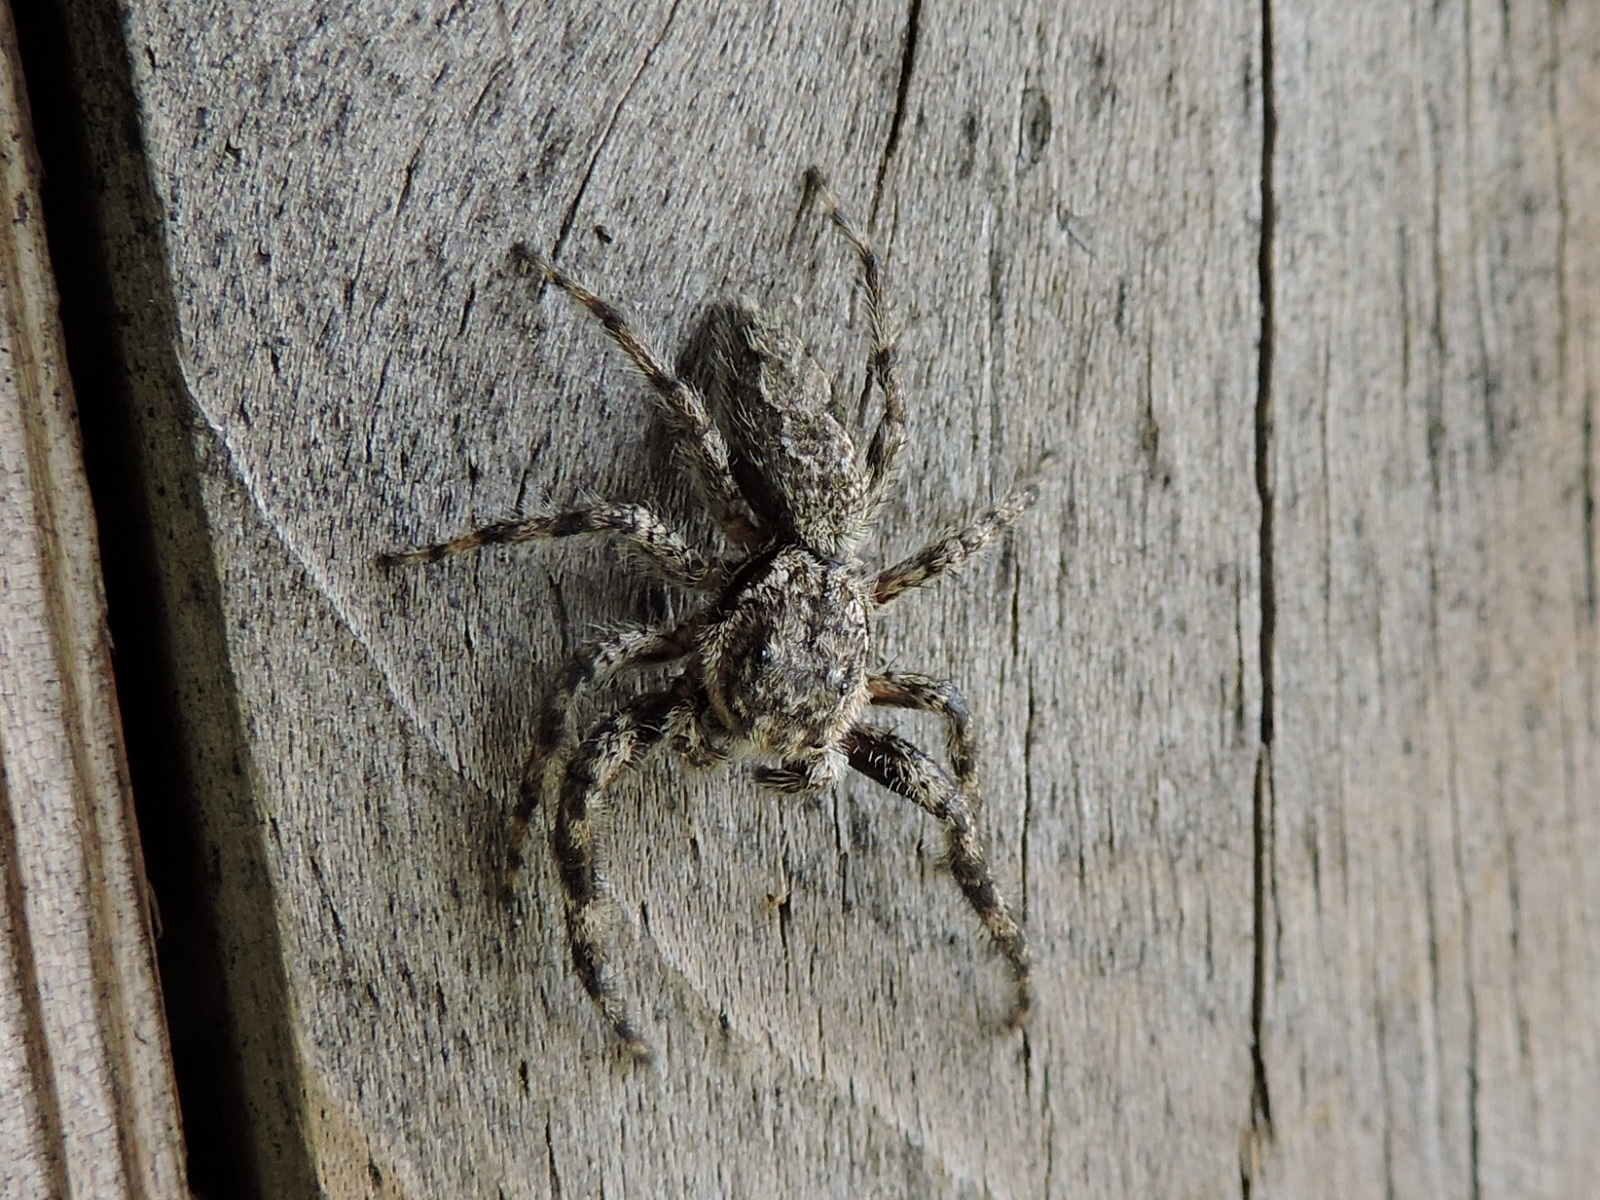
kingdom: Animalia
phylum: Arthropoda
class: Arachnida
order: Araneae
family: Salticidae
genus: Platycryptus
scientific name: Platycryptus undatus
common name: Tan jumping spider
